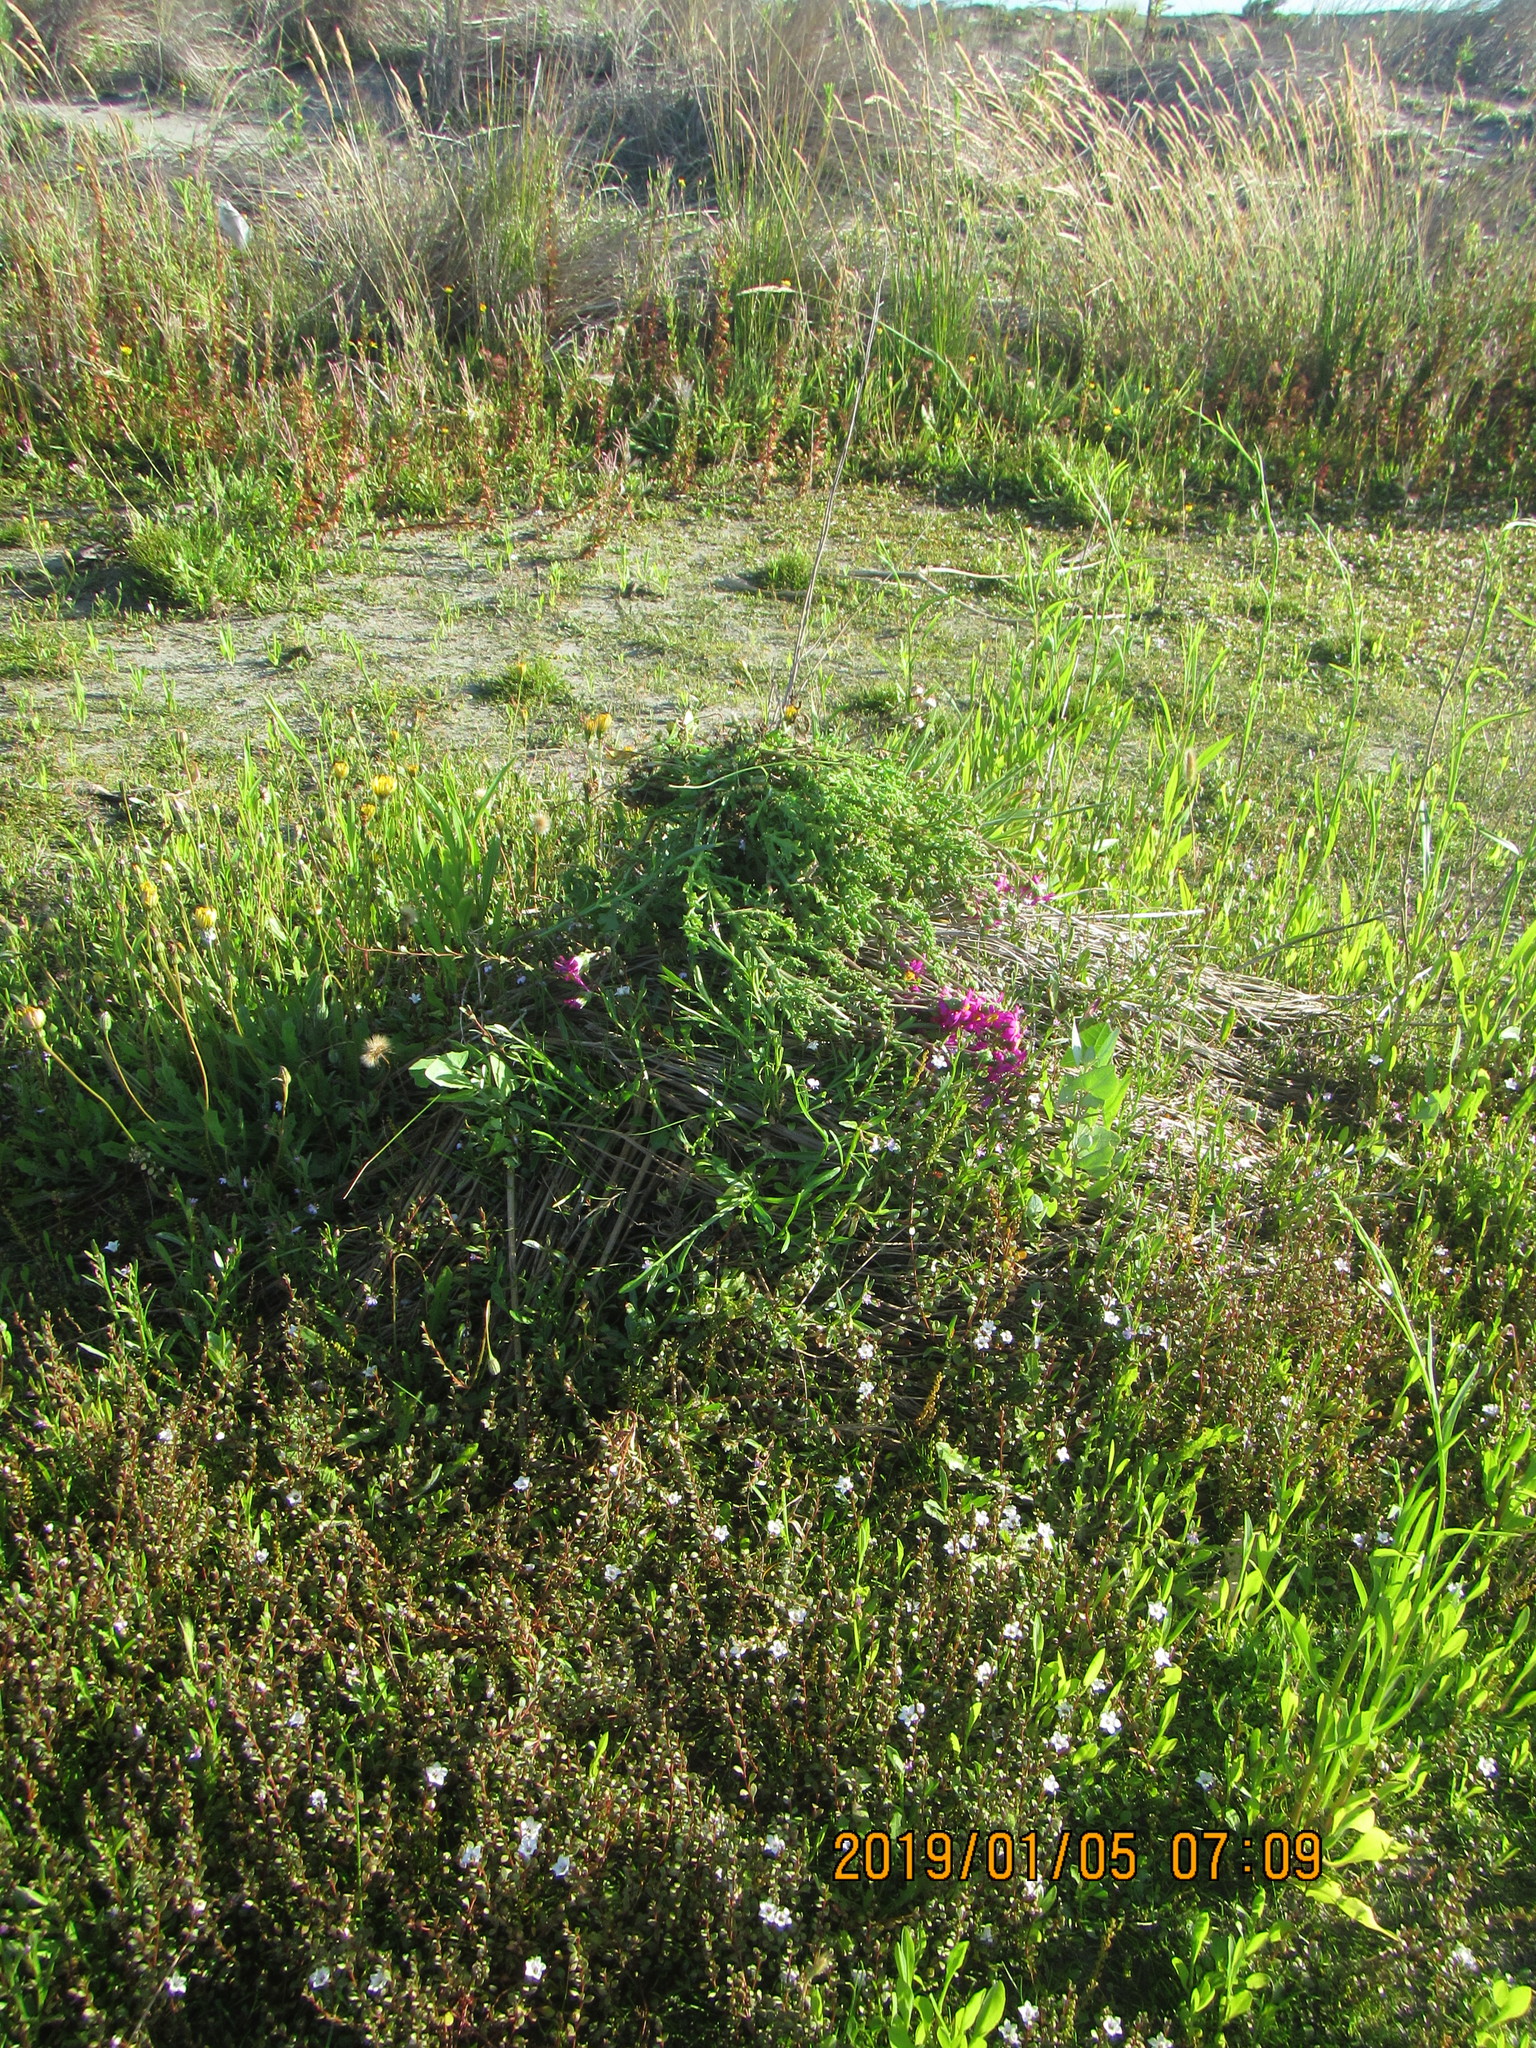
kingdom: Plantae
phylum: Tracheophyta
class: Magnoliopsida
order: Asterales
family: Asteraceae
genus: Senecio
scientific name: Senecio elegans
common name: Purple groundsel
